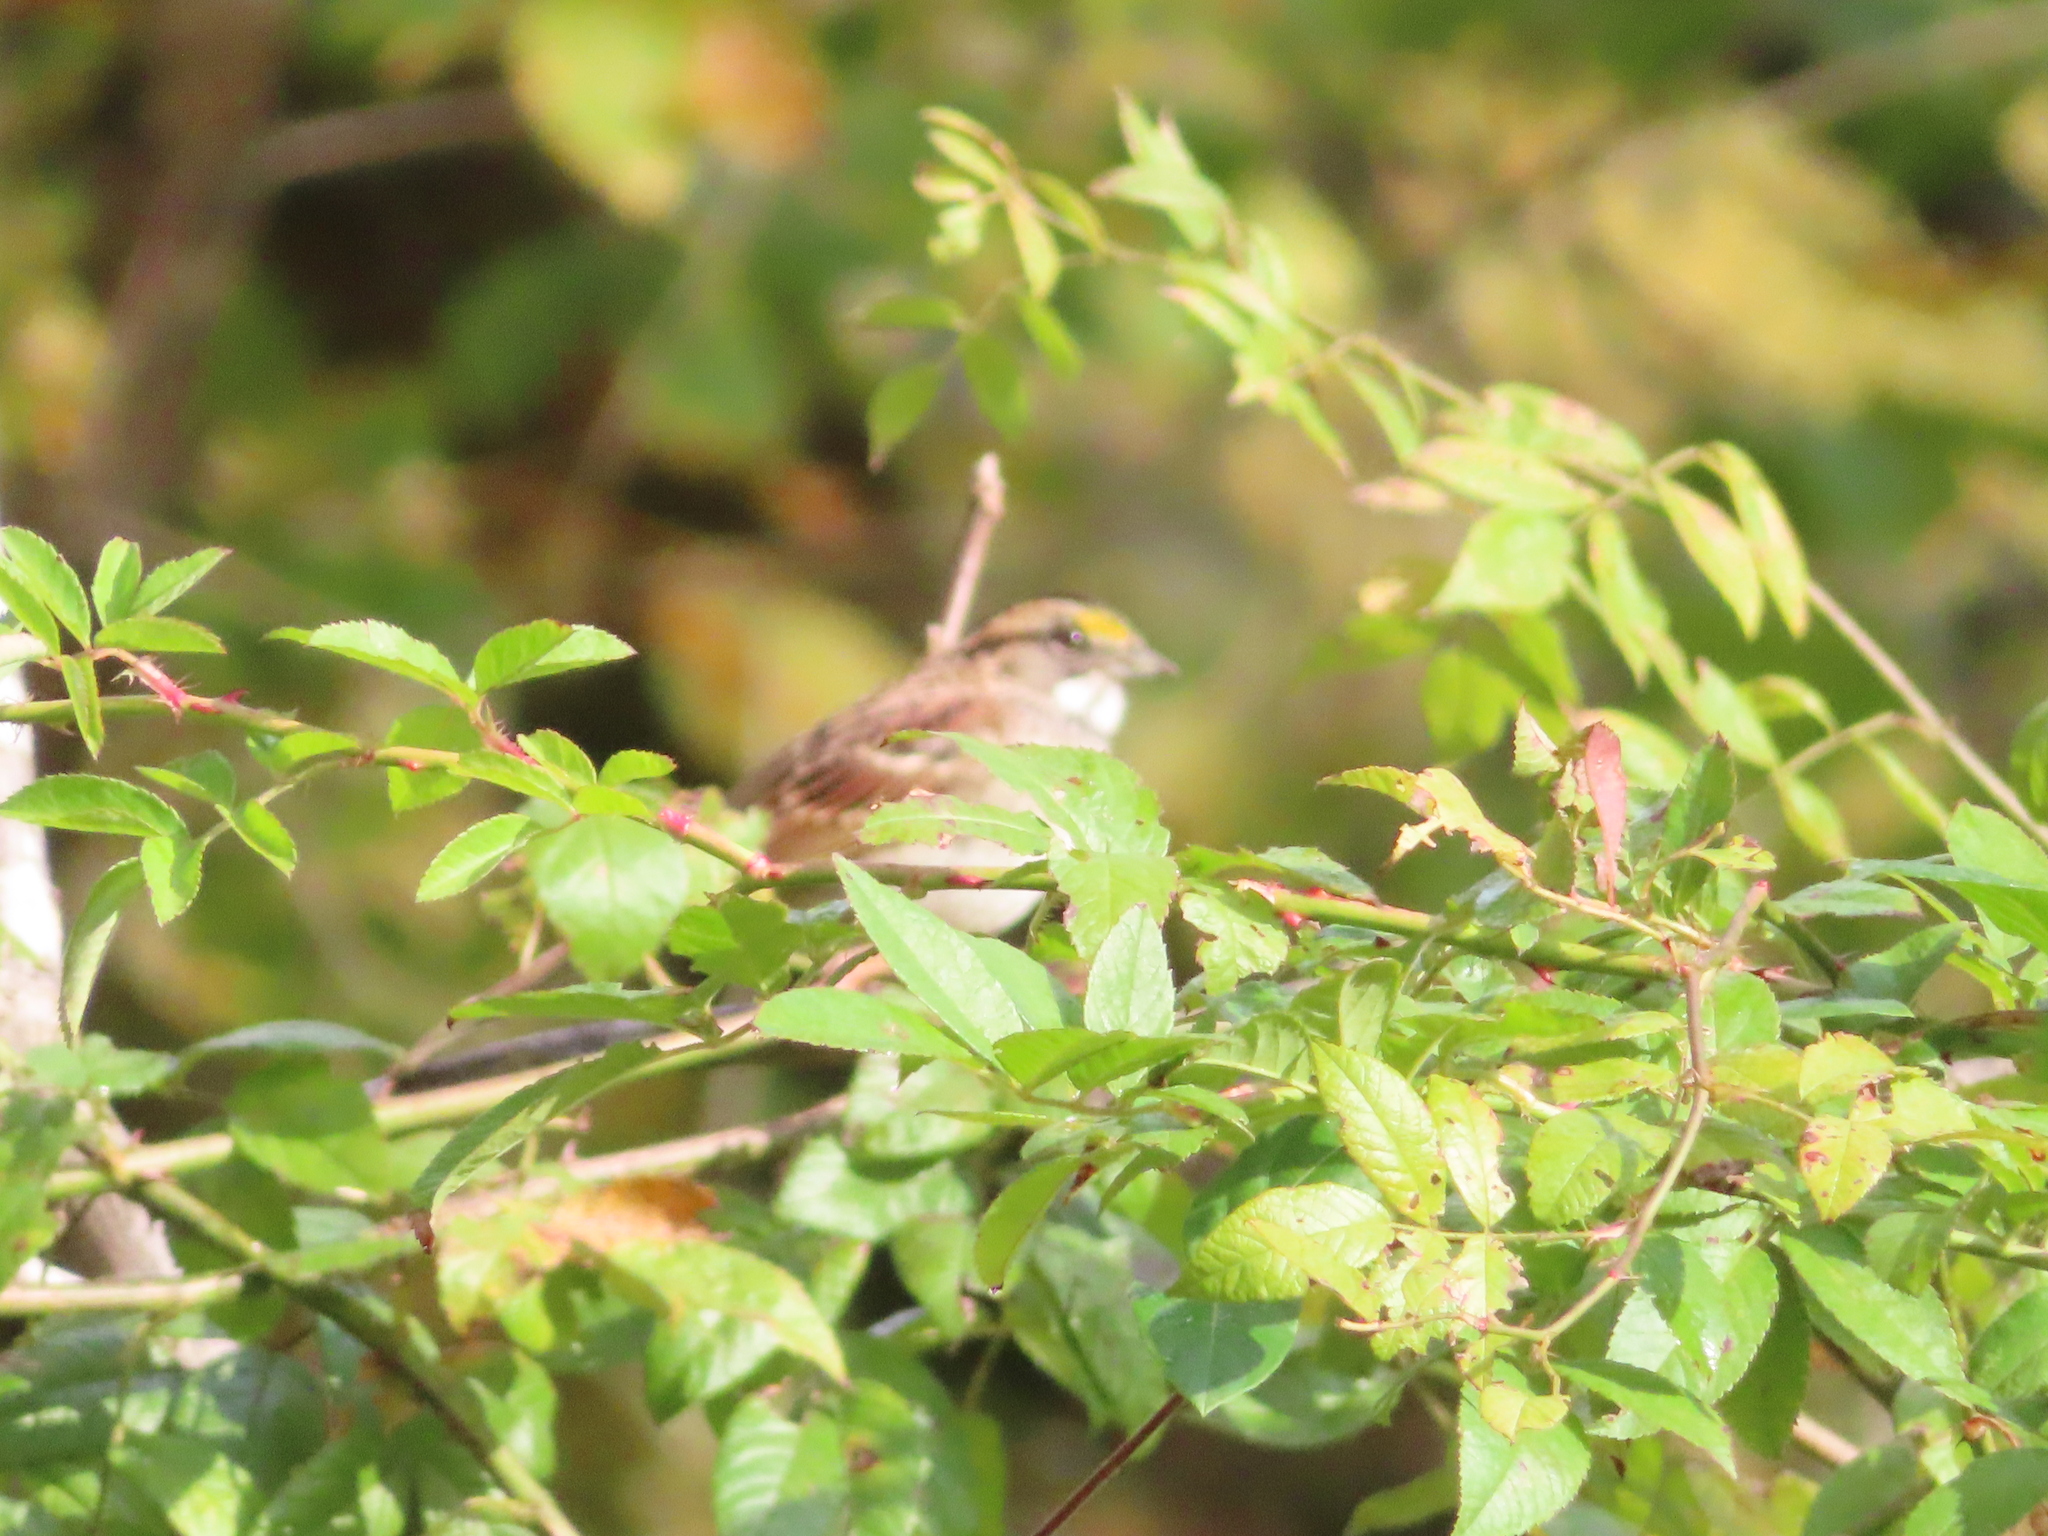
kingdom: Animalia
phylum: Chordata
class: Aves
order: Passeriformes
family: Passerellidae
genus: Zonotrichia
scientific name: Zonotrichia albicollis
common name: White-throated sparrow
